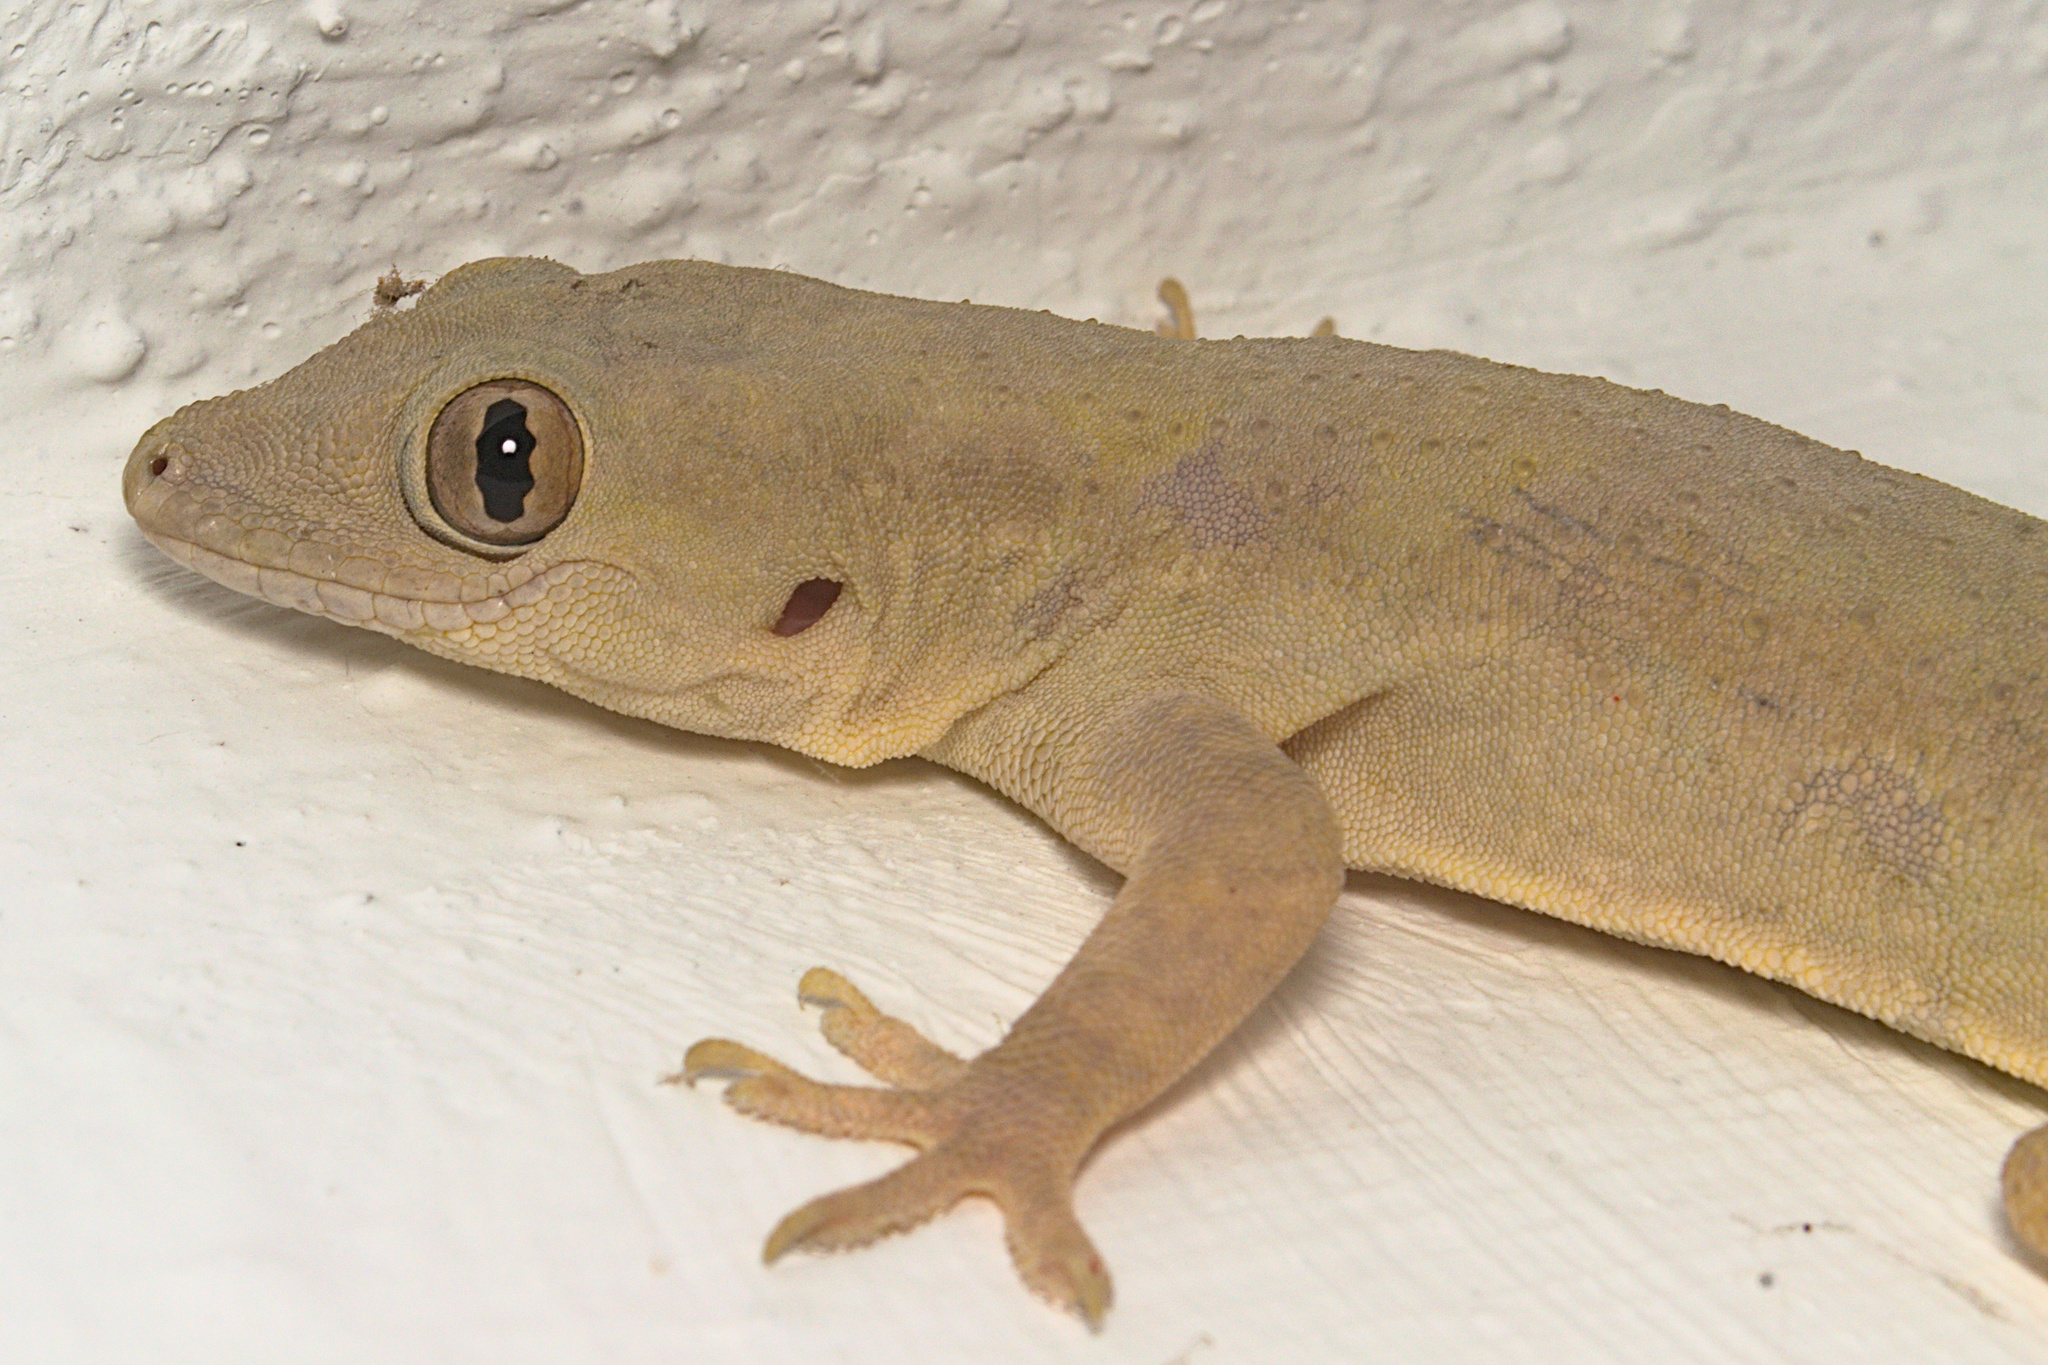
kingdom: Animalia
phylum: Chordata
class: Squamata
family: Gekkonidae
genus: Hemidactylus
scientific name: Hemidactylus flaviviridis
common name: Northern house gecko
